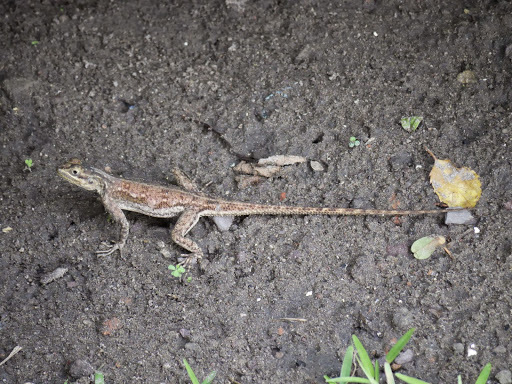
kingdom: Animalia
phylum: Chordata
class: Squamata
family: Agamidae
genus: Agama
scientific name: Agama agama
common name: Common agama
